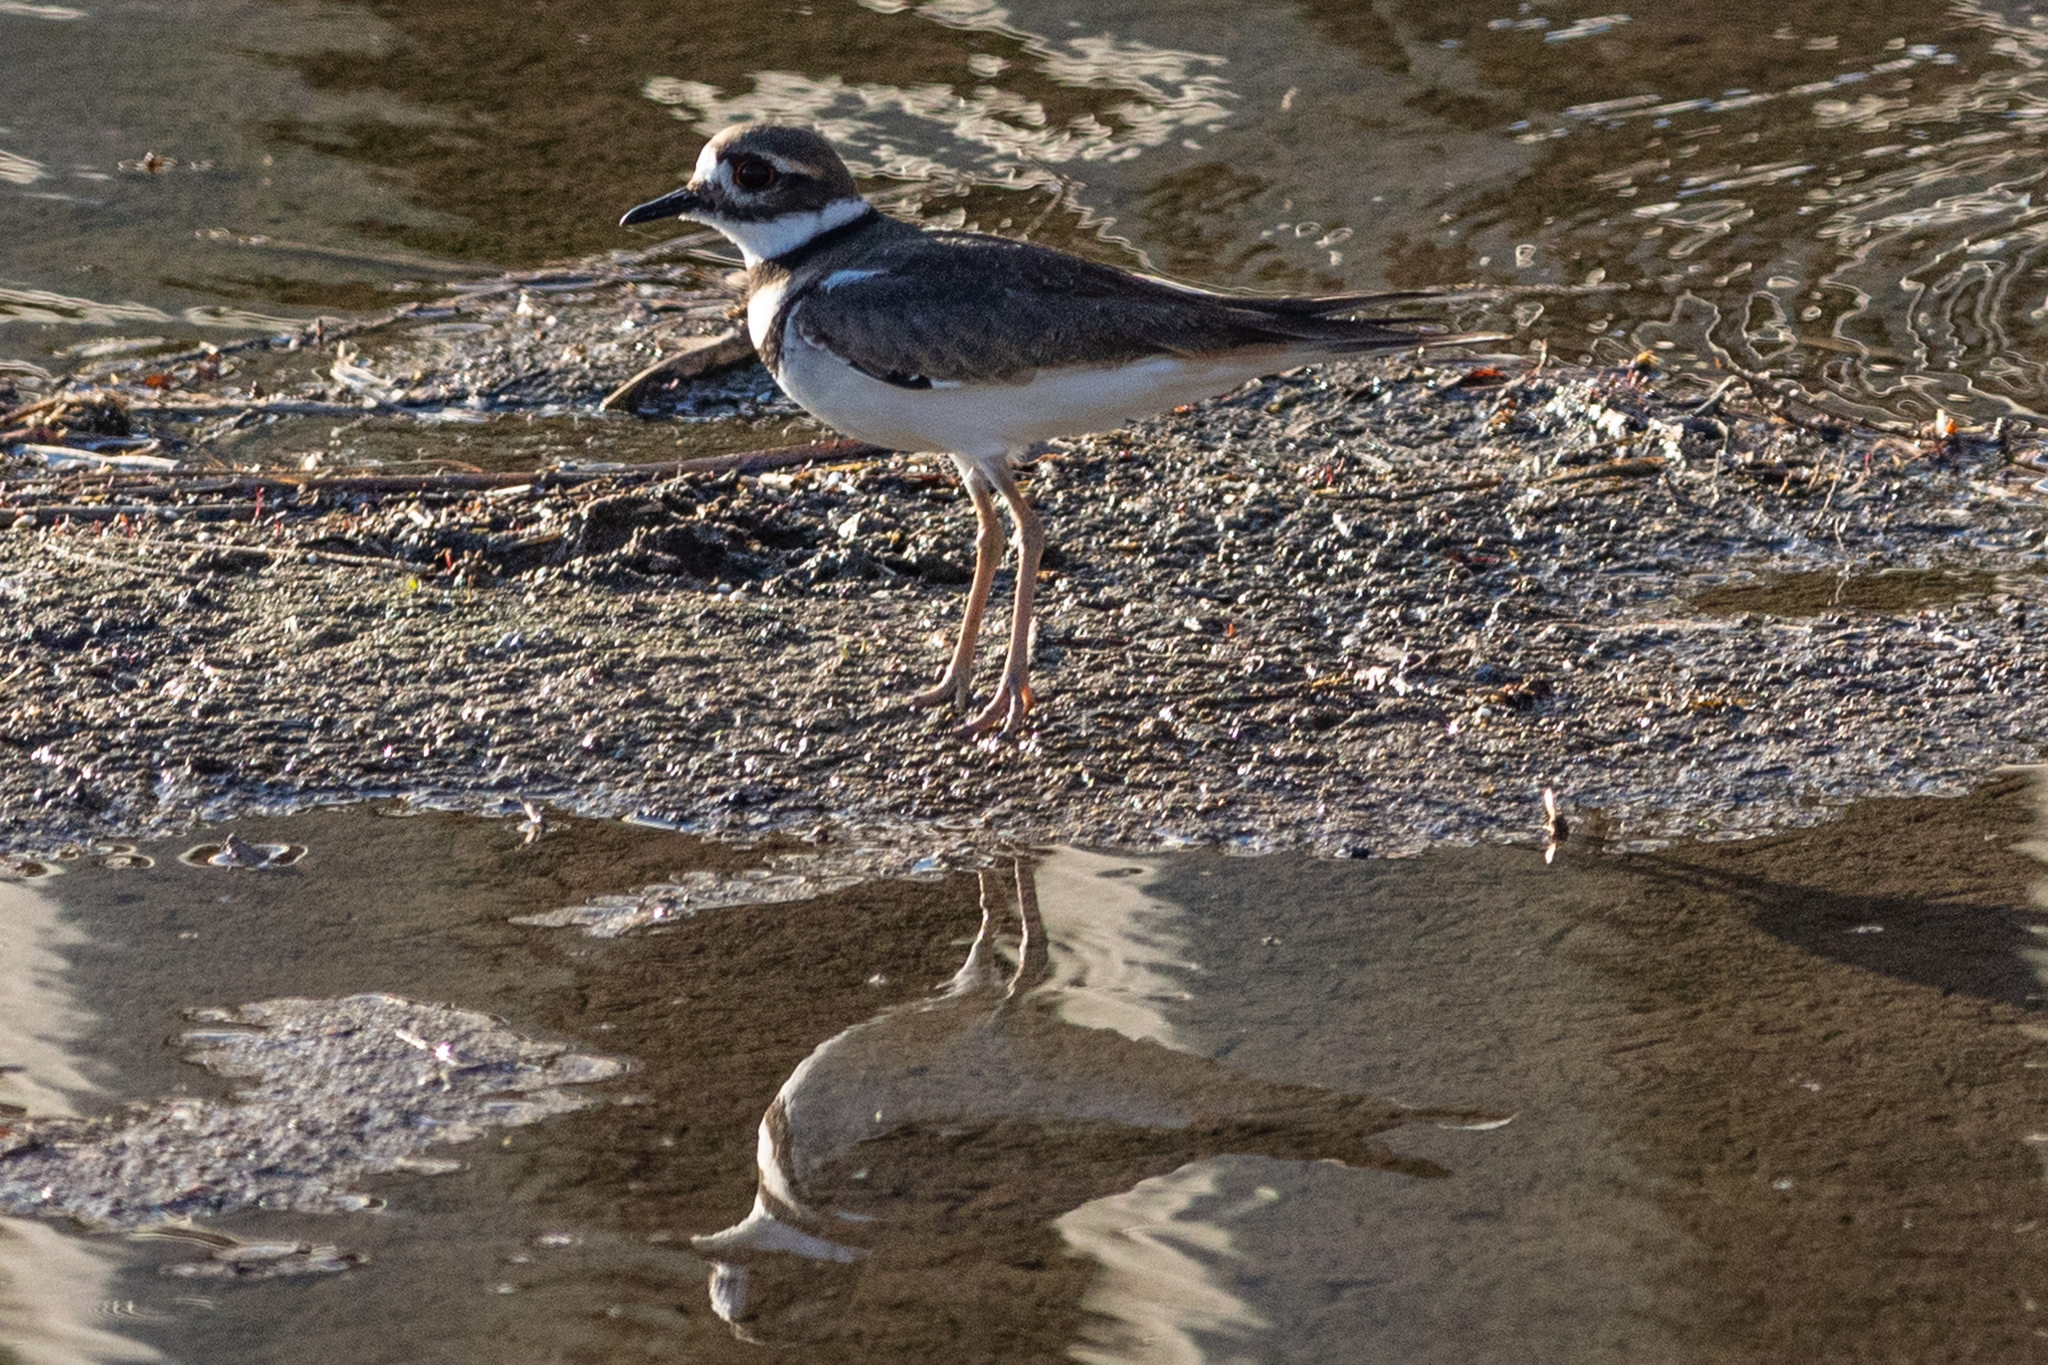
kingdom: Animalia
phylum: Chordata
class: Aves
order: Charadriiformes
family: Charadriidae
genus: Charadrius
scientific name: Charadrius vociferus
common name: Killdeer
